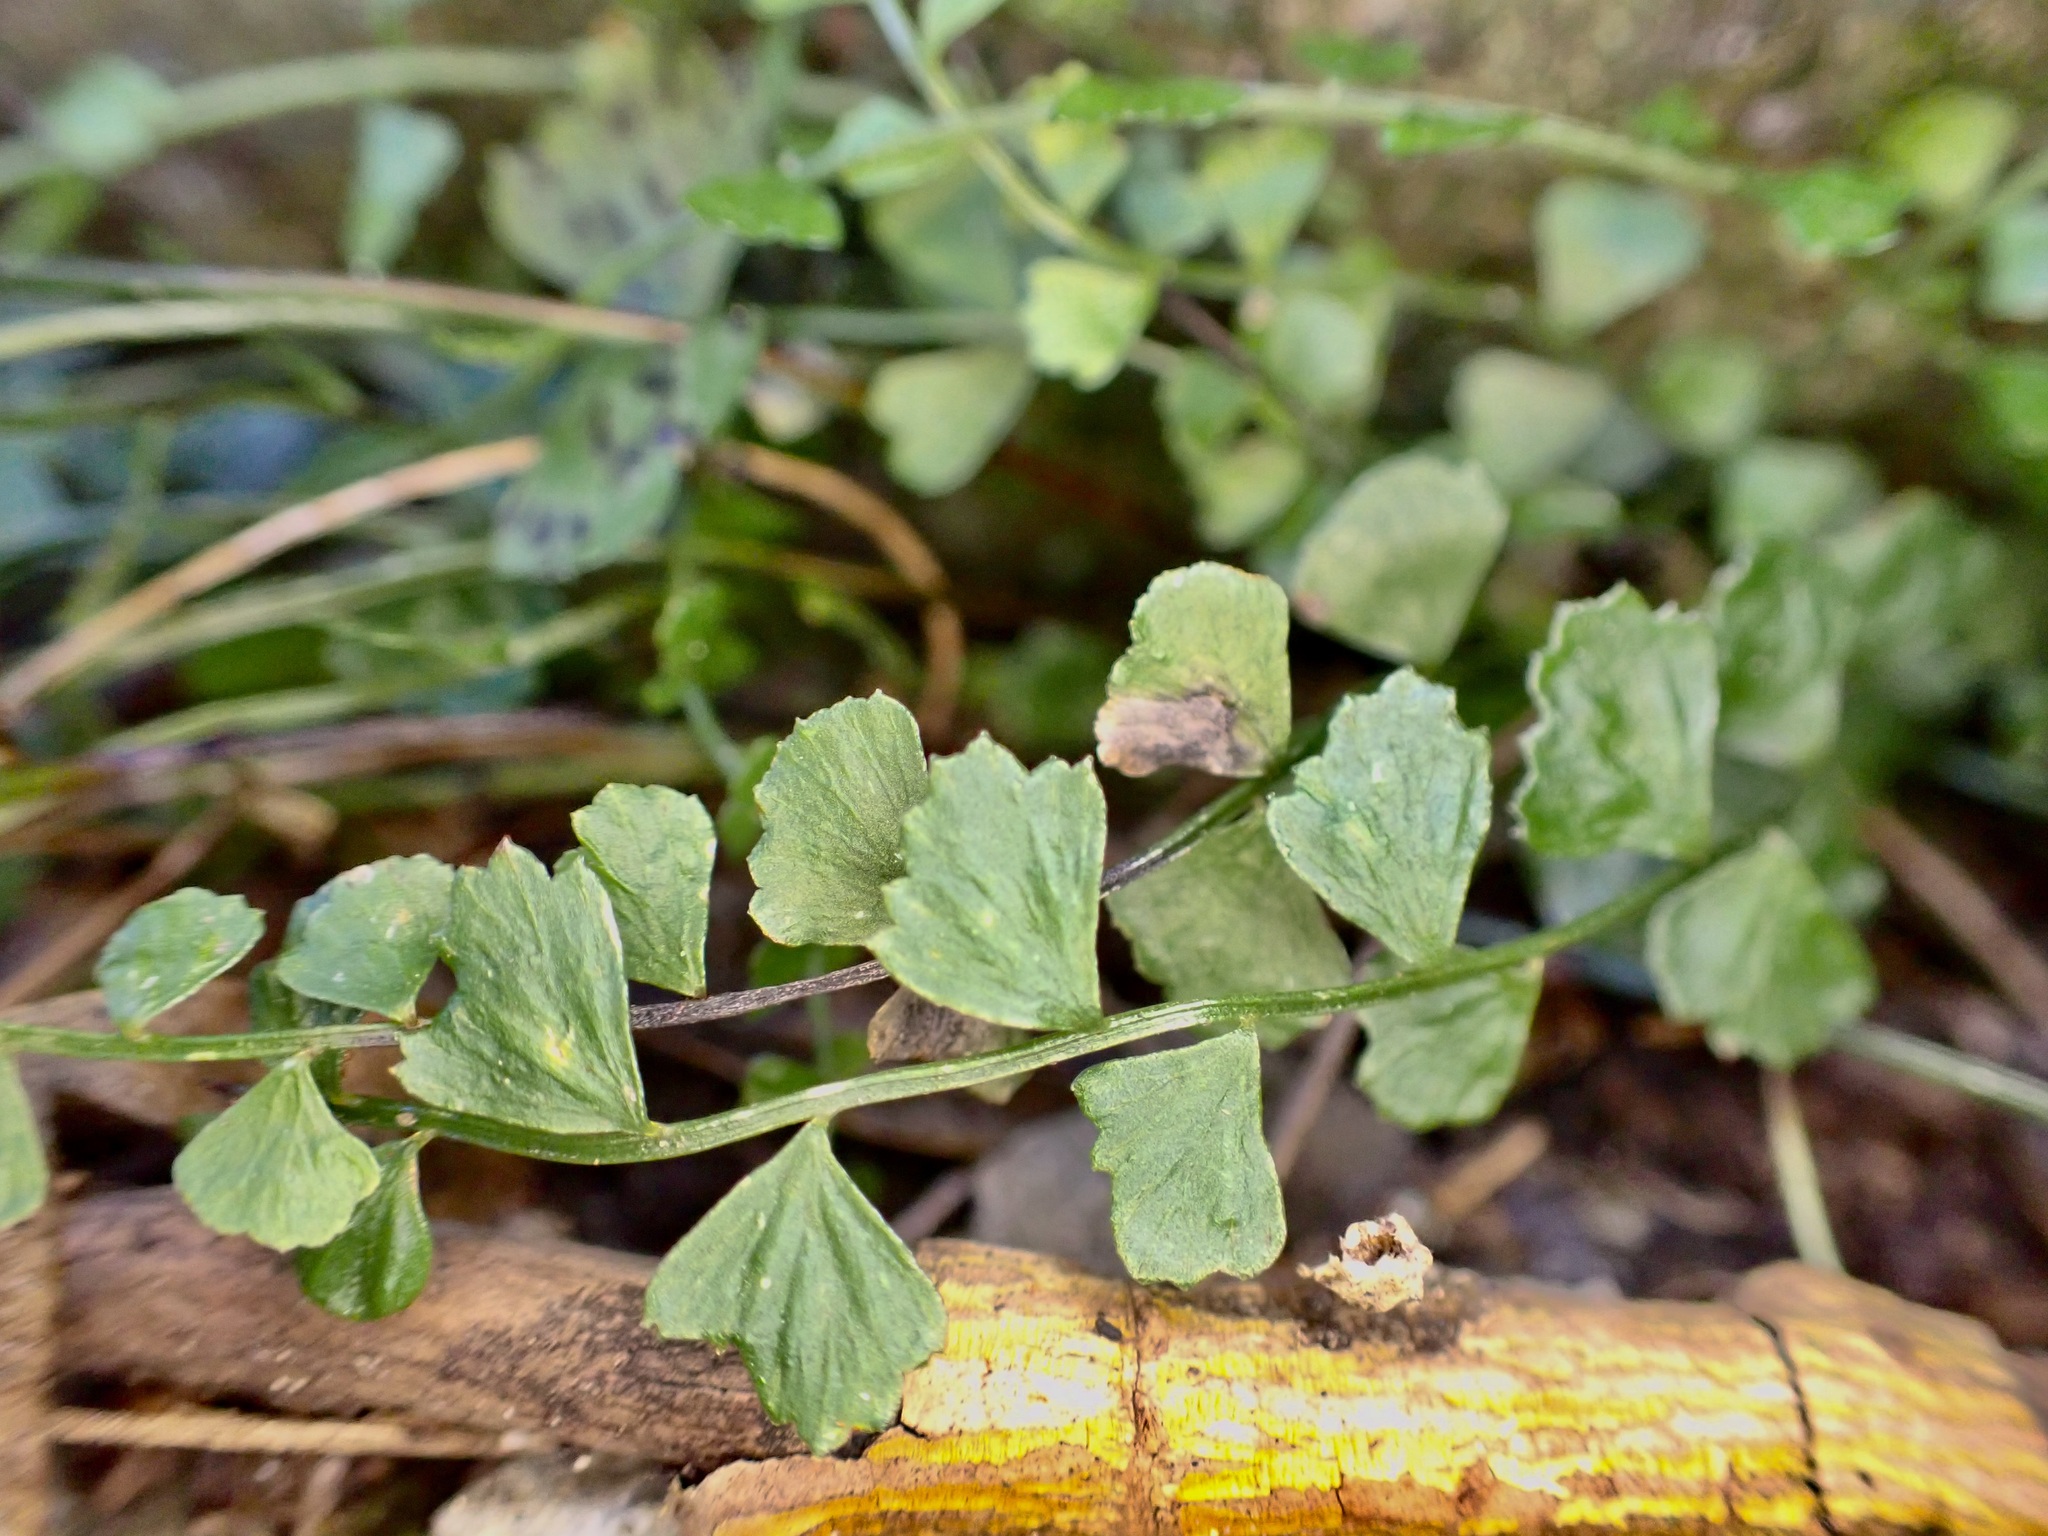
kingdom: Plantae
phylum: Tracheophyta
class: Polypodiopsida
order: Polypodiales
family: Aspleniaceae
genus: Asplenium
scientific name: Asplenium flabellifolium
